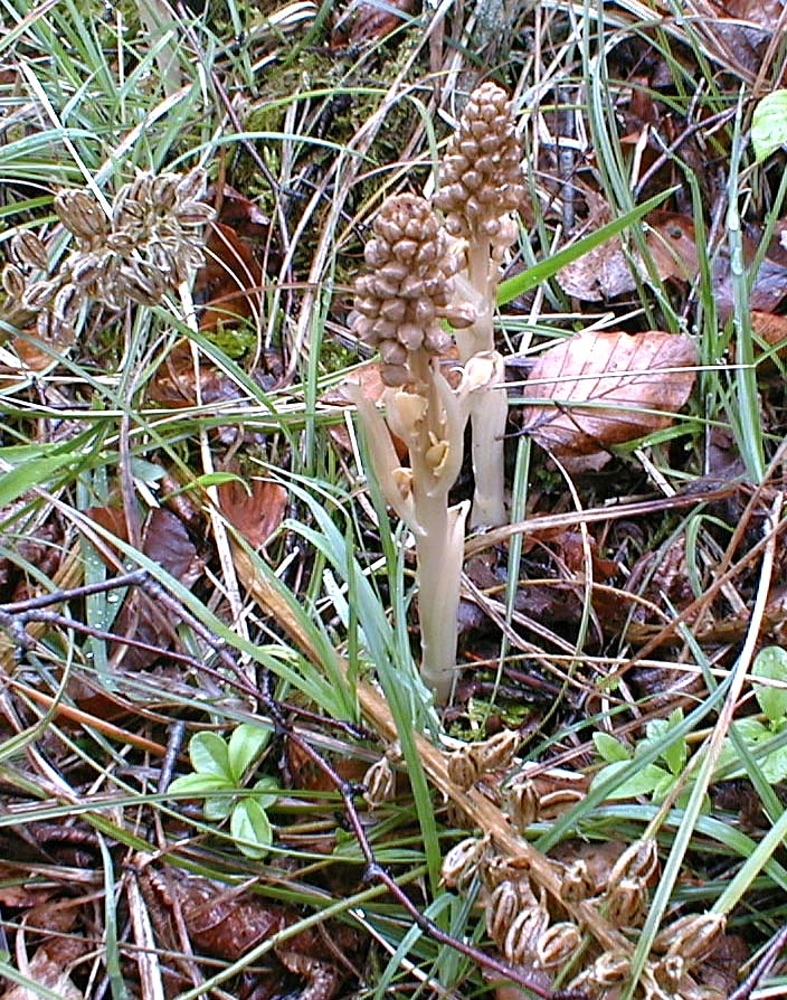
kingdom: Plantae
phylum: Tracheophyta
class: Liliopsida
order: Asparagales
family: Orchidaceae
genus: Neottia
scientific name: Neottia nidus-avis
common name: Bird's-nest orchid
